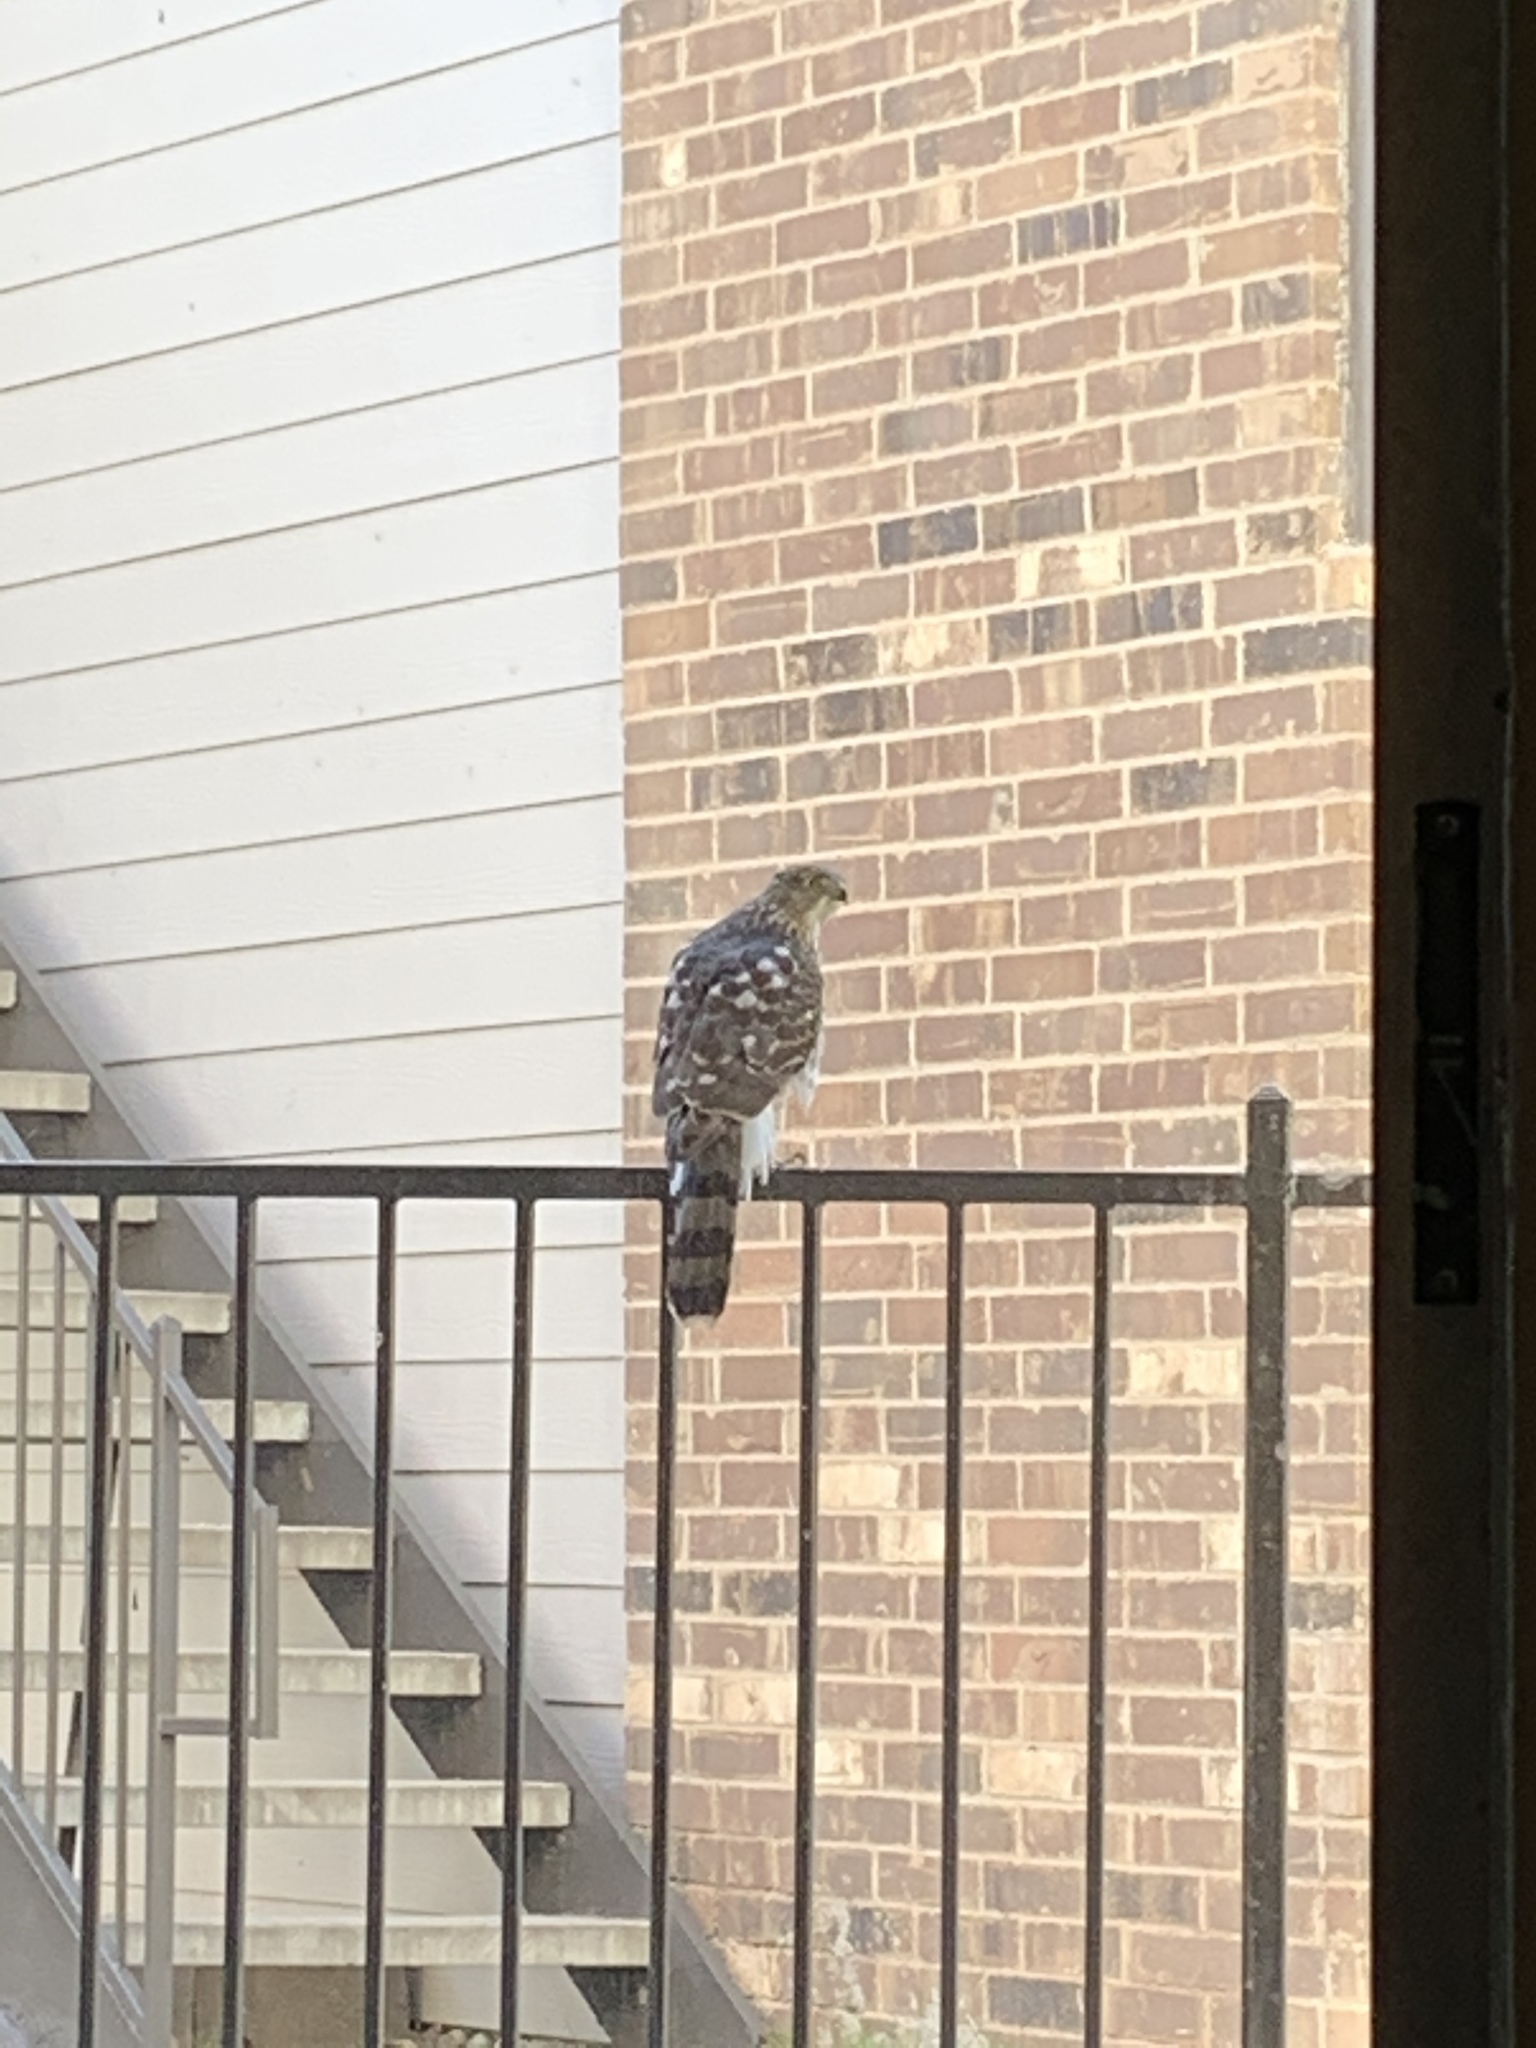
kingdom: Animalia
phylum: Chordata
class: Aves
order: Accipitriformes
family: Accipitridae
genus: Accipiter
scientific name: Accipiter cooperii
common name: Cooper's hawk
